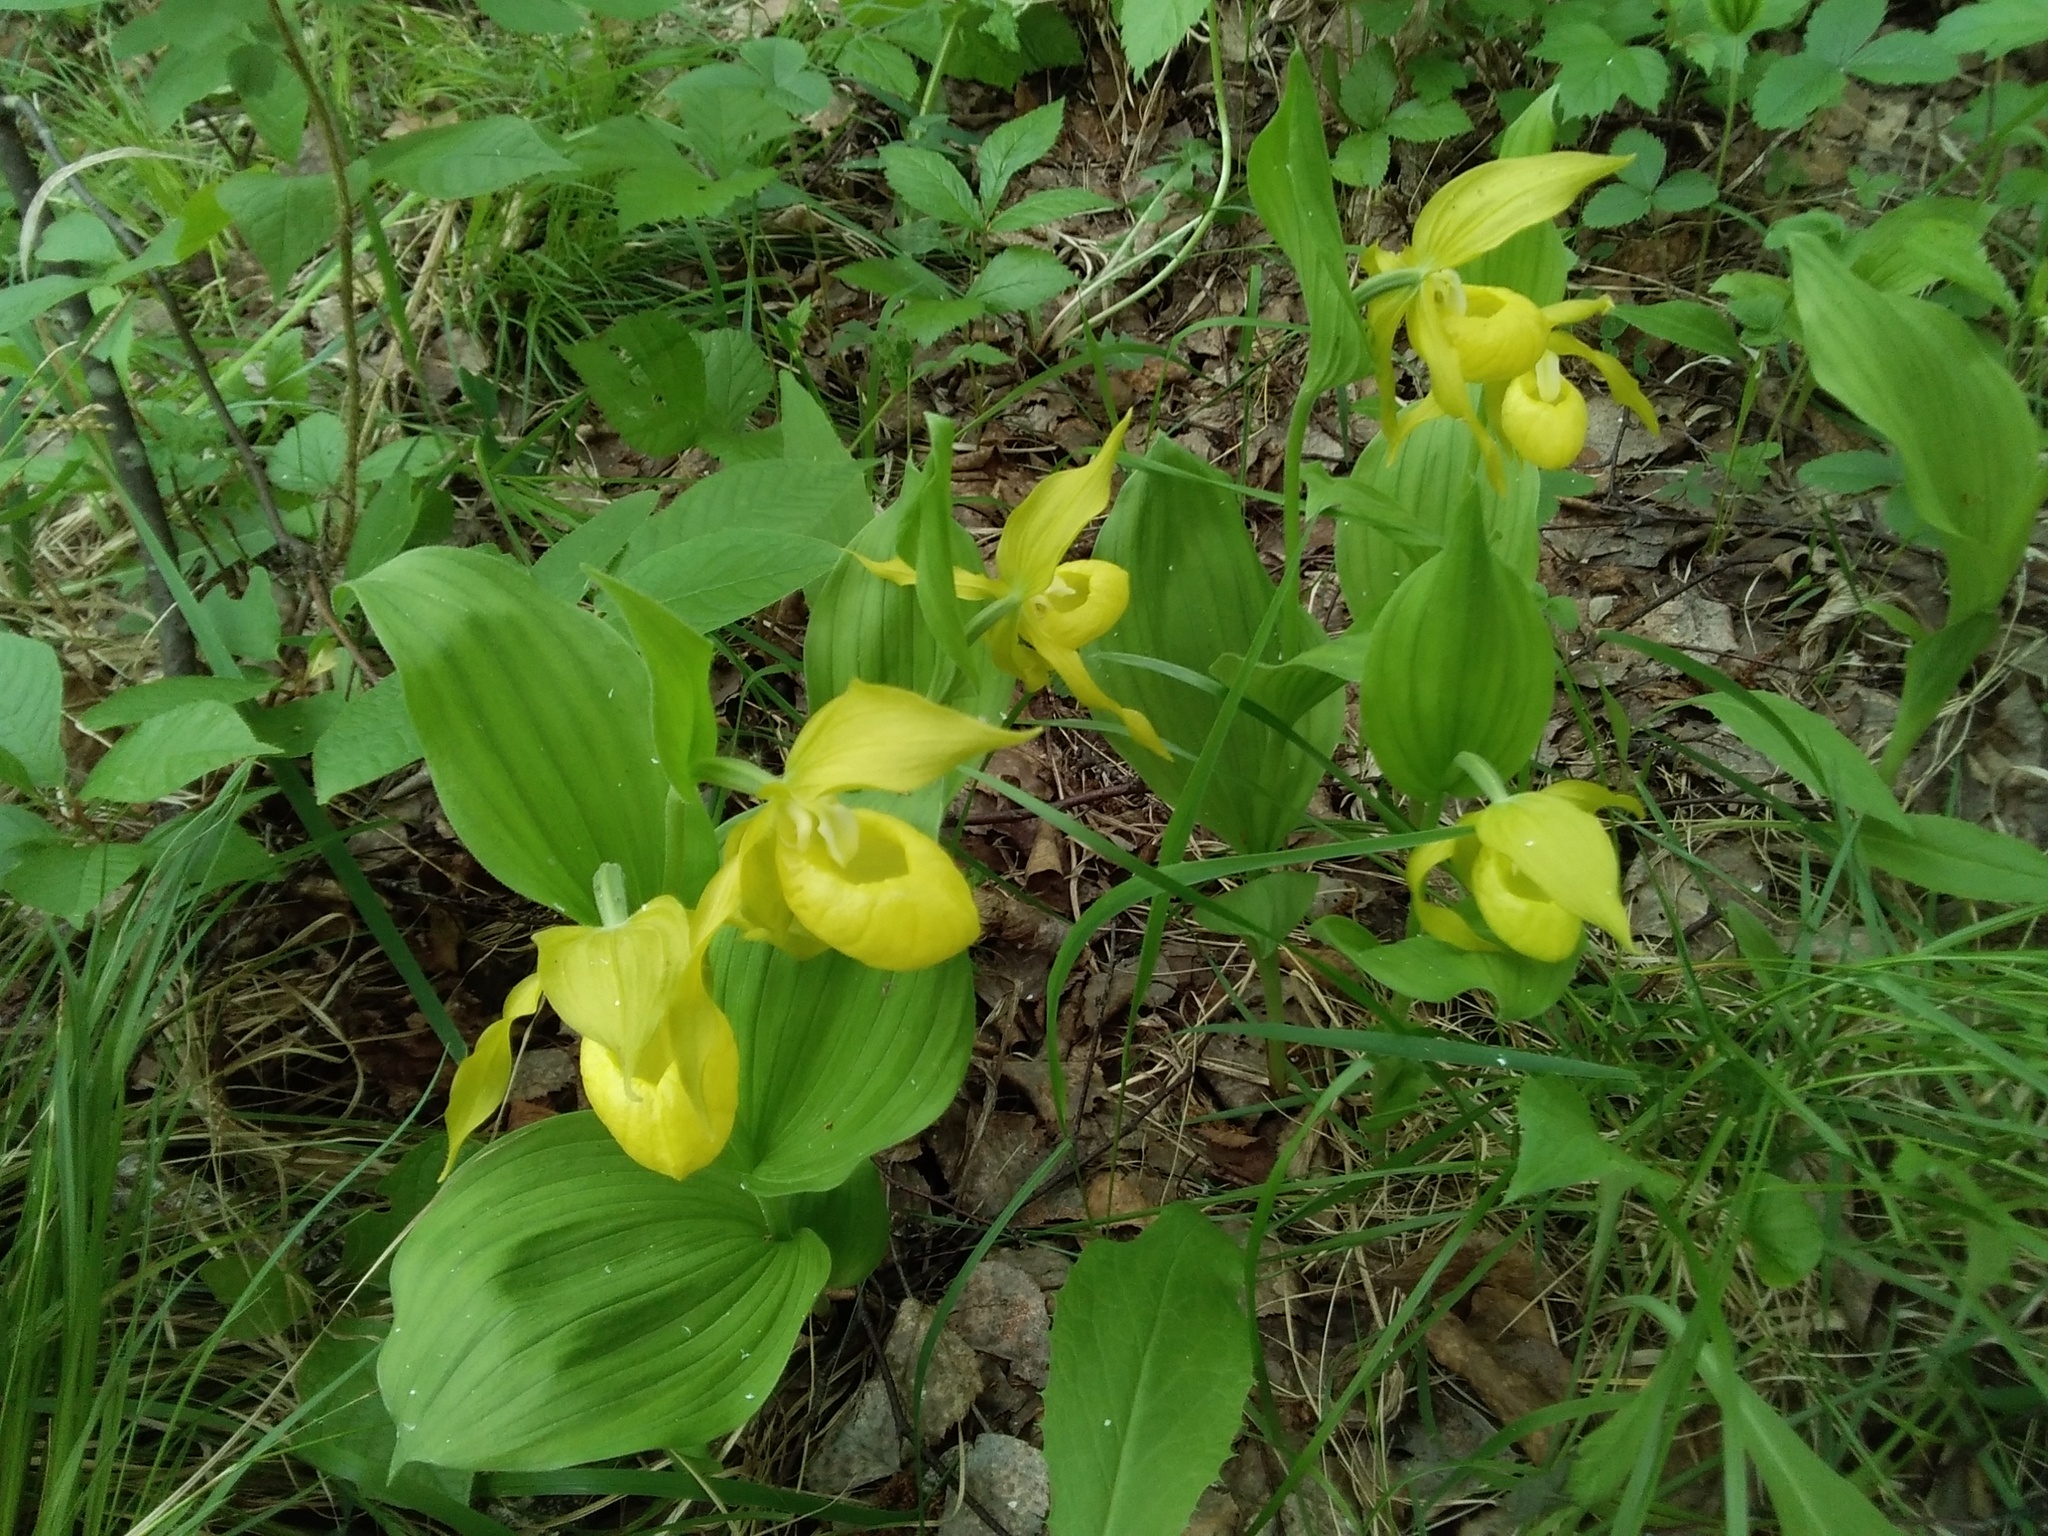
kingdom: Plantae
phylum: Tracheophyta
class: Liliopsida
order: Asparagales
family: Orchidaceae
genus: Cypripedium
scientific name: Cypripedium calceolus
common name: Lady's-slipper
